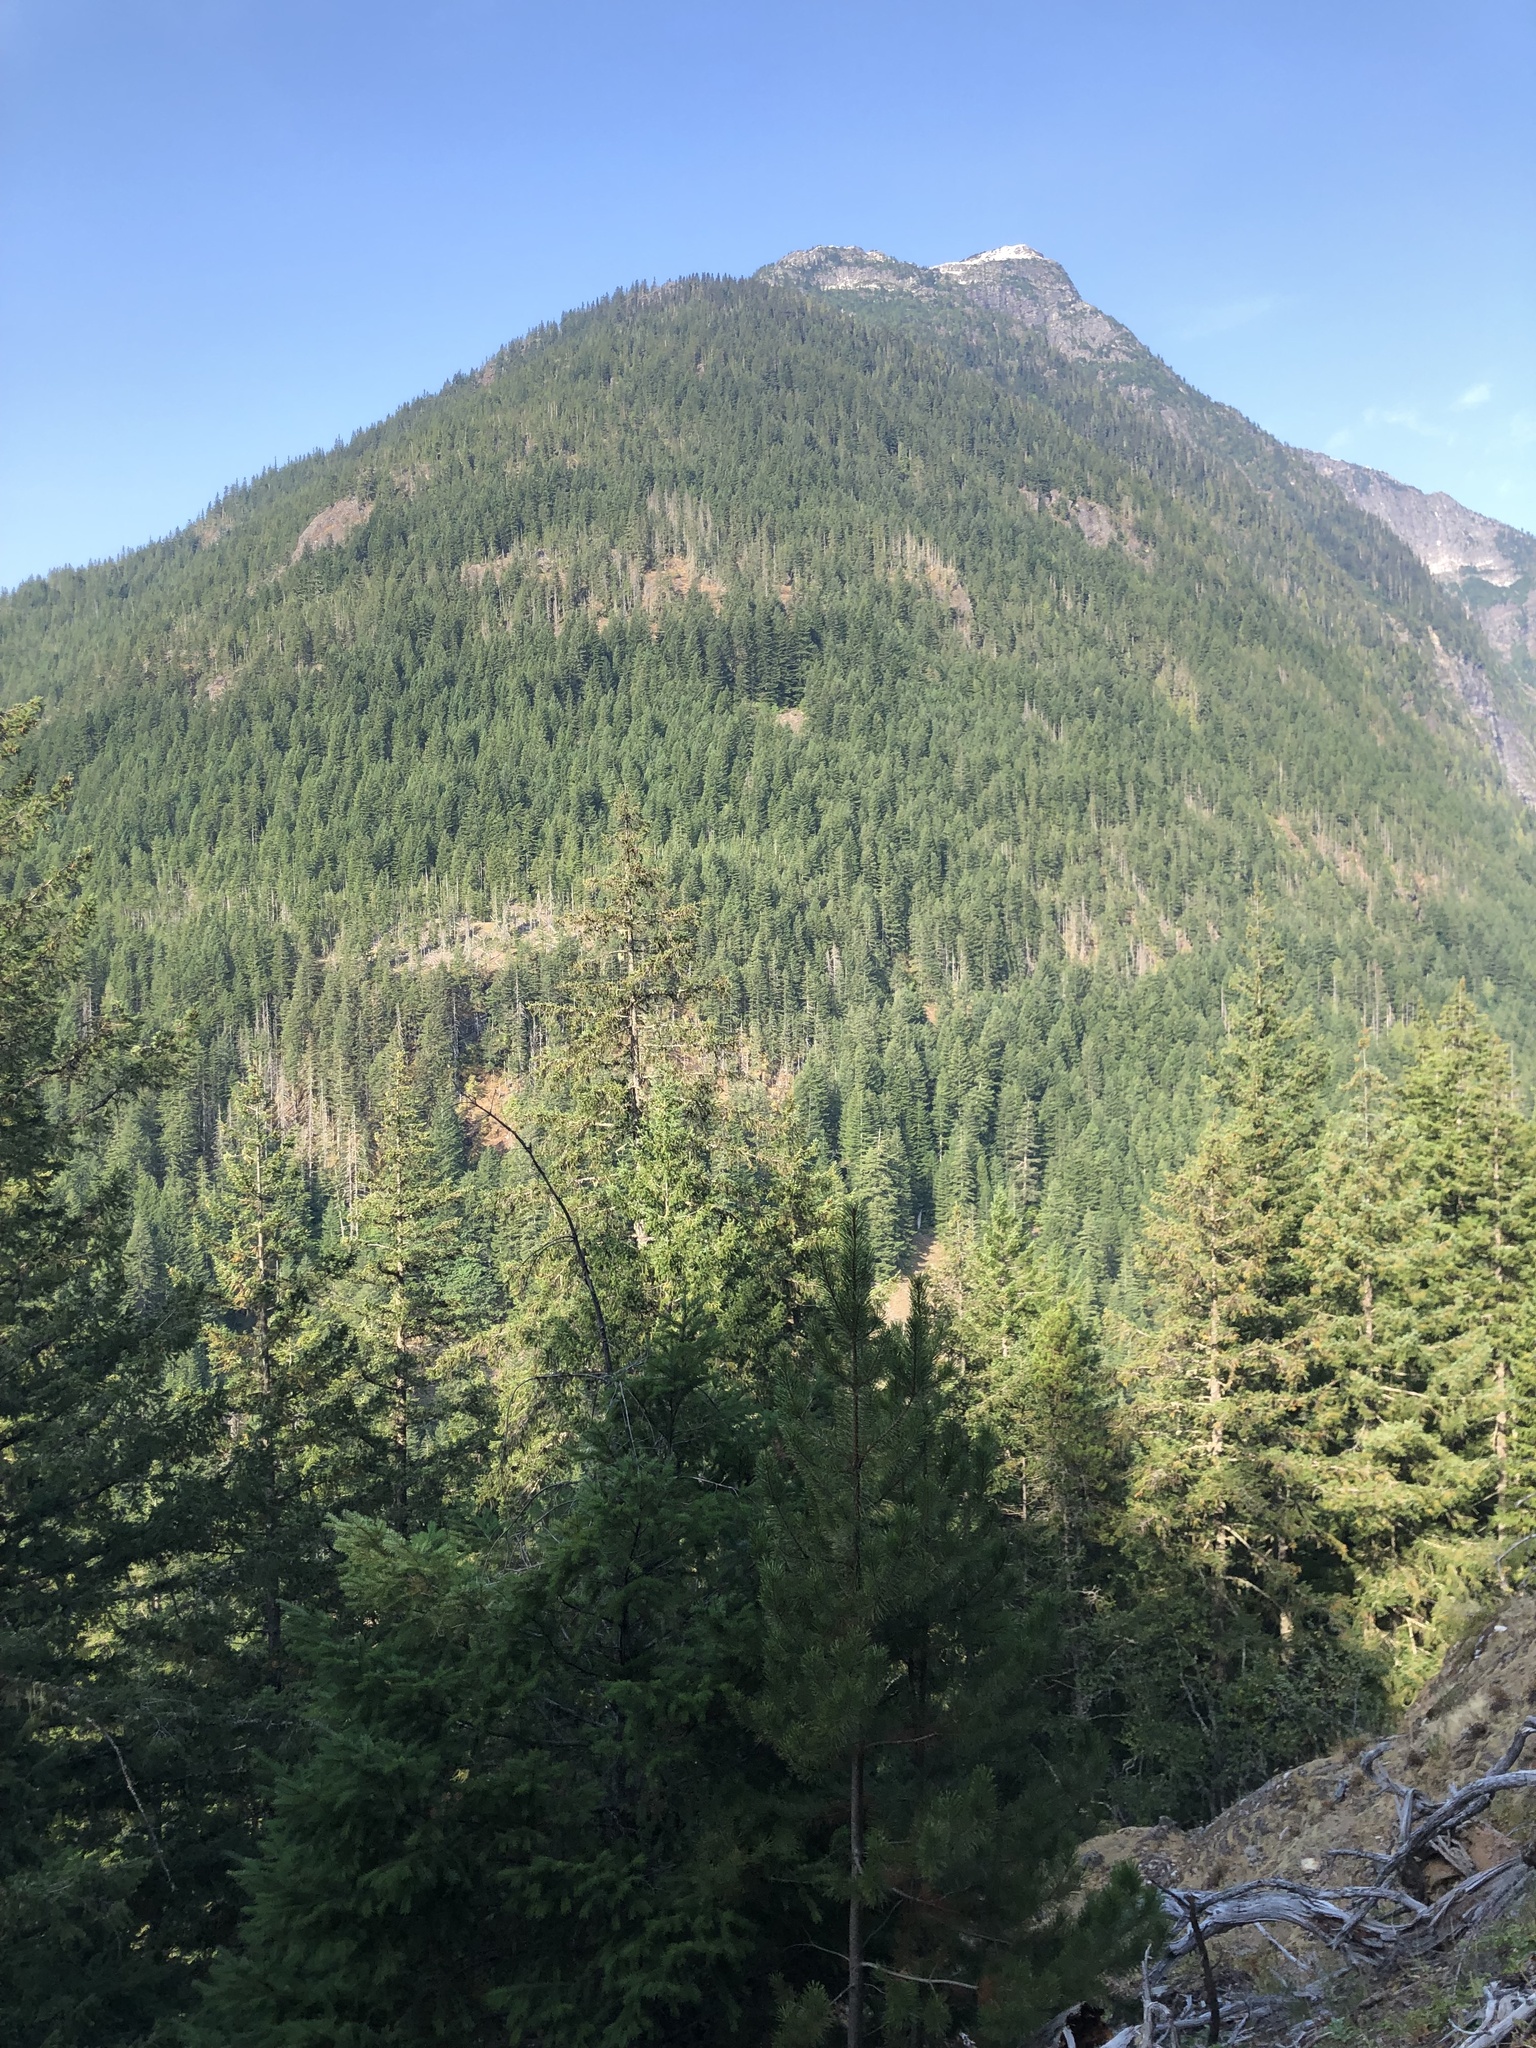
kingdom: Plantae
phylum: Tracheophyta
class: Pinopsida
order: Pinales
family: Pinaceae
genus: Pinus
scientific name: Pinus contorta
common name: Lodgepole pine
